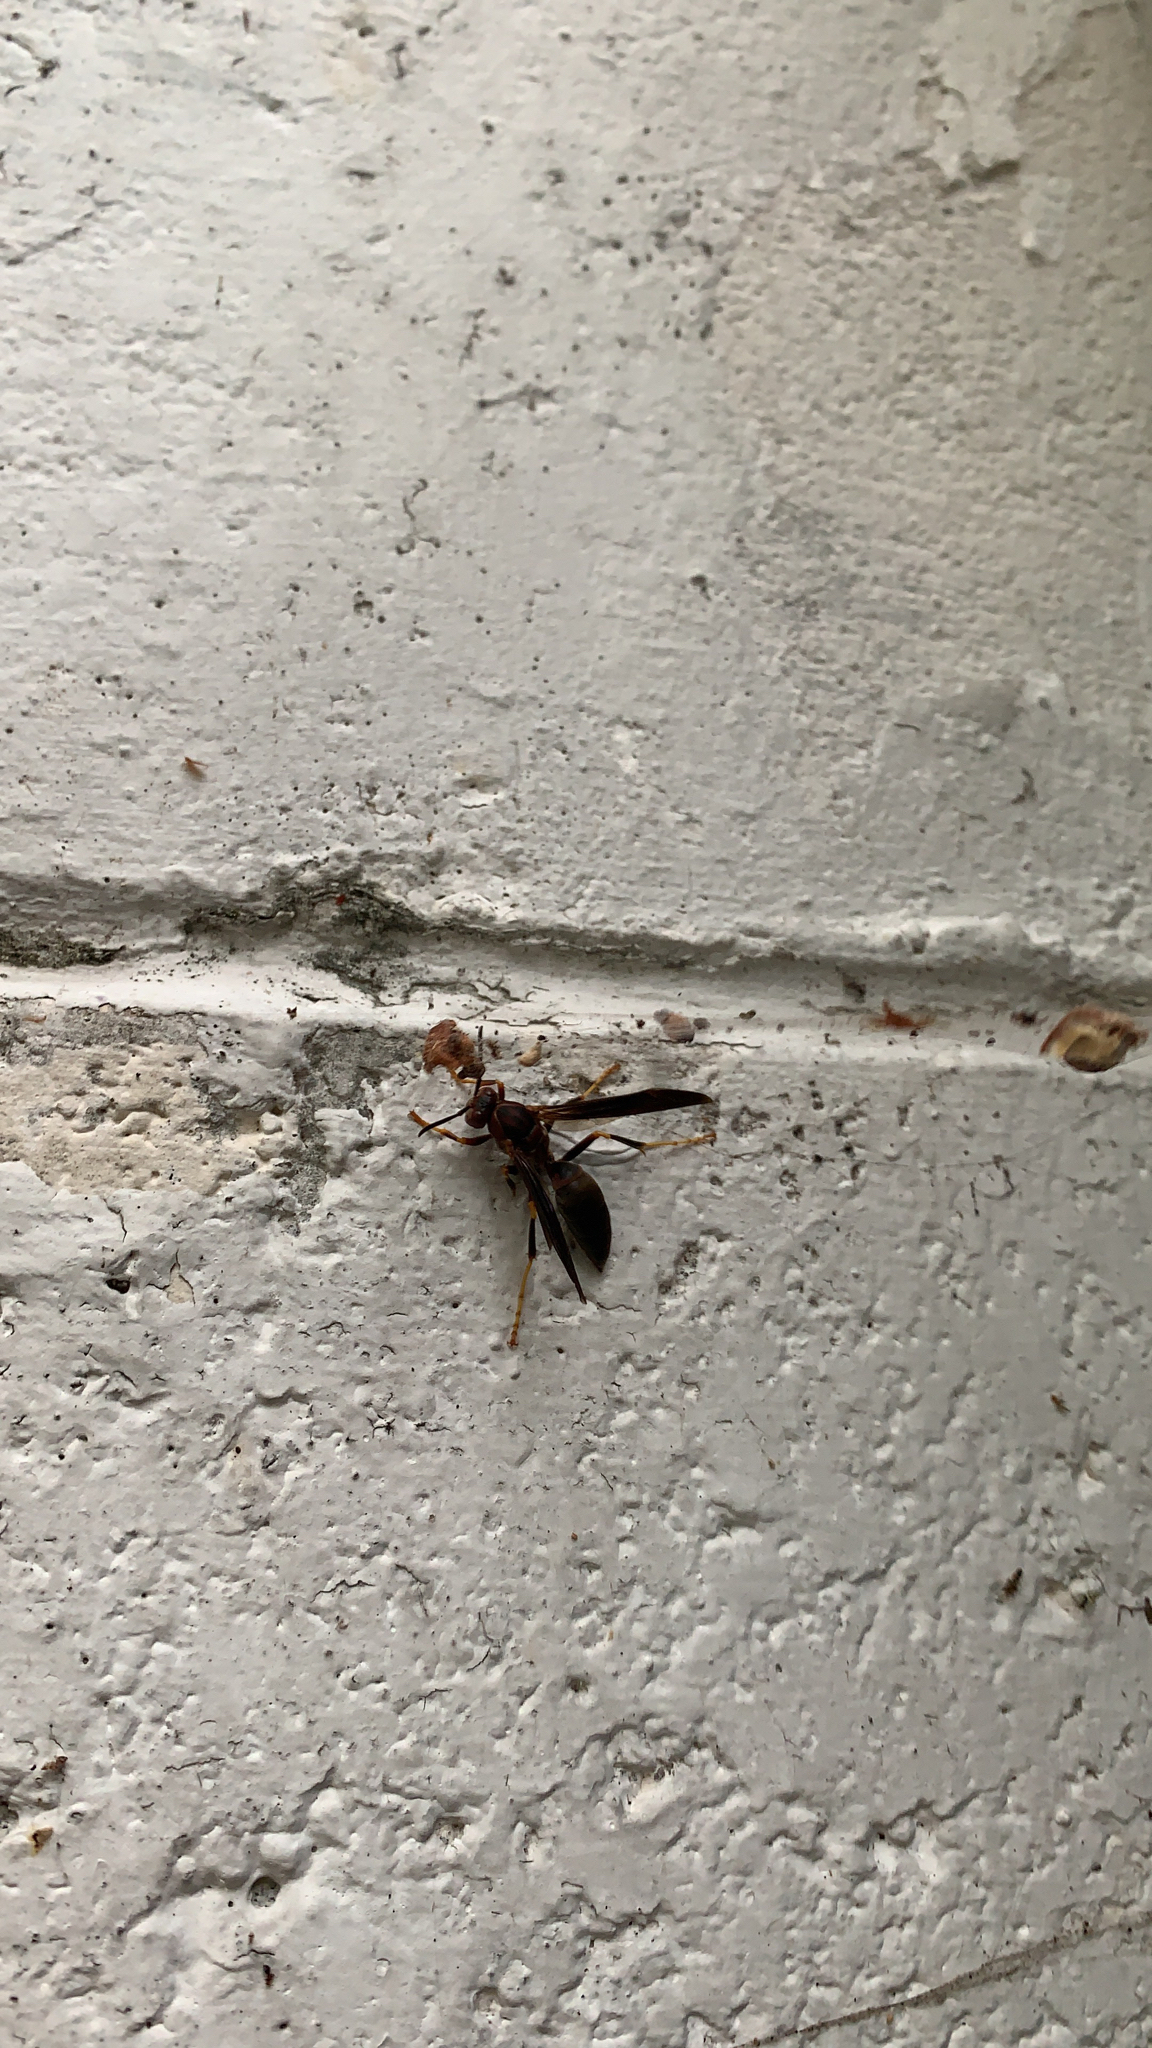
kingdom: Animalia
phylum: Arthropoda
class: Insecta
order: Hymenoptera
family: Eumenidae
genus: Polistes
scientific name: Polistes metricus
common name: Metric paper wasp
